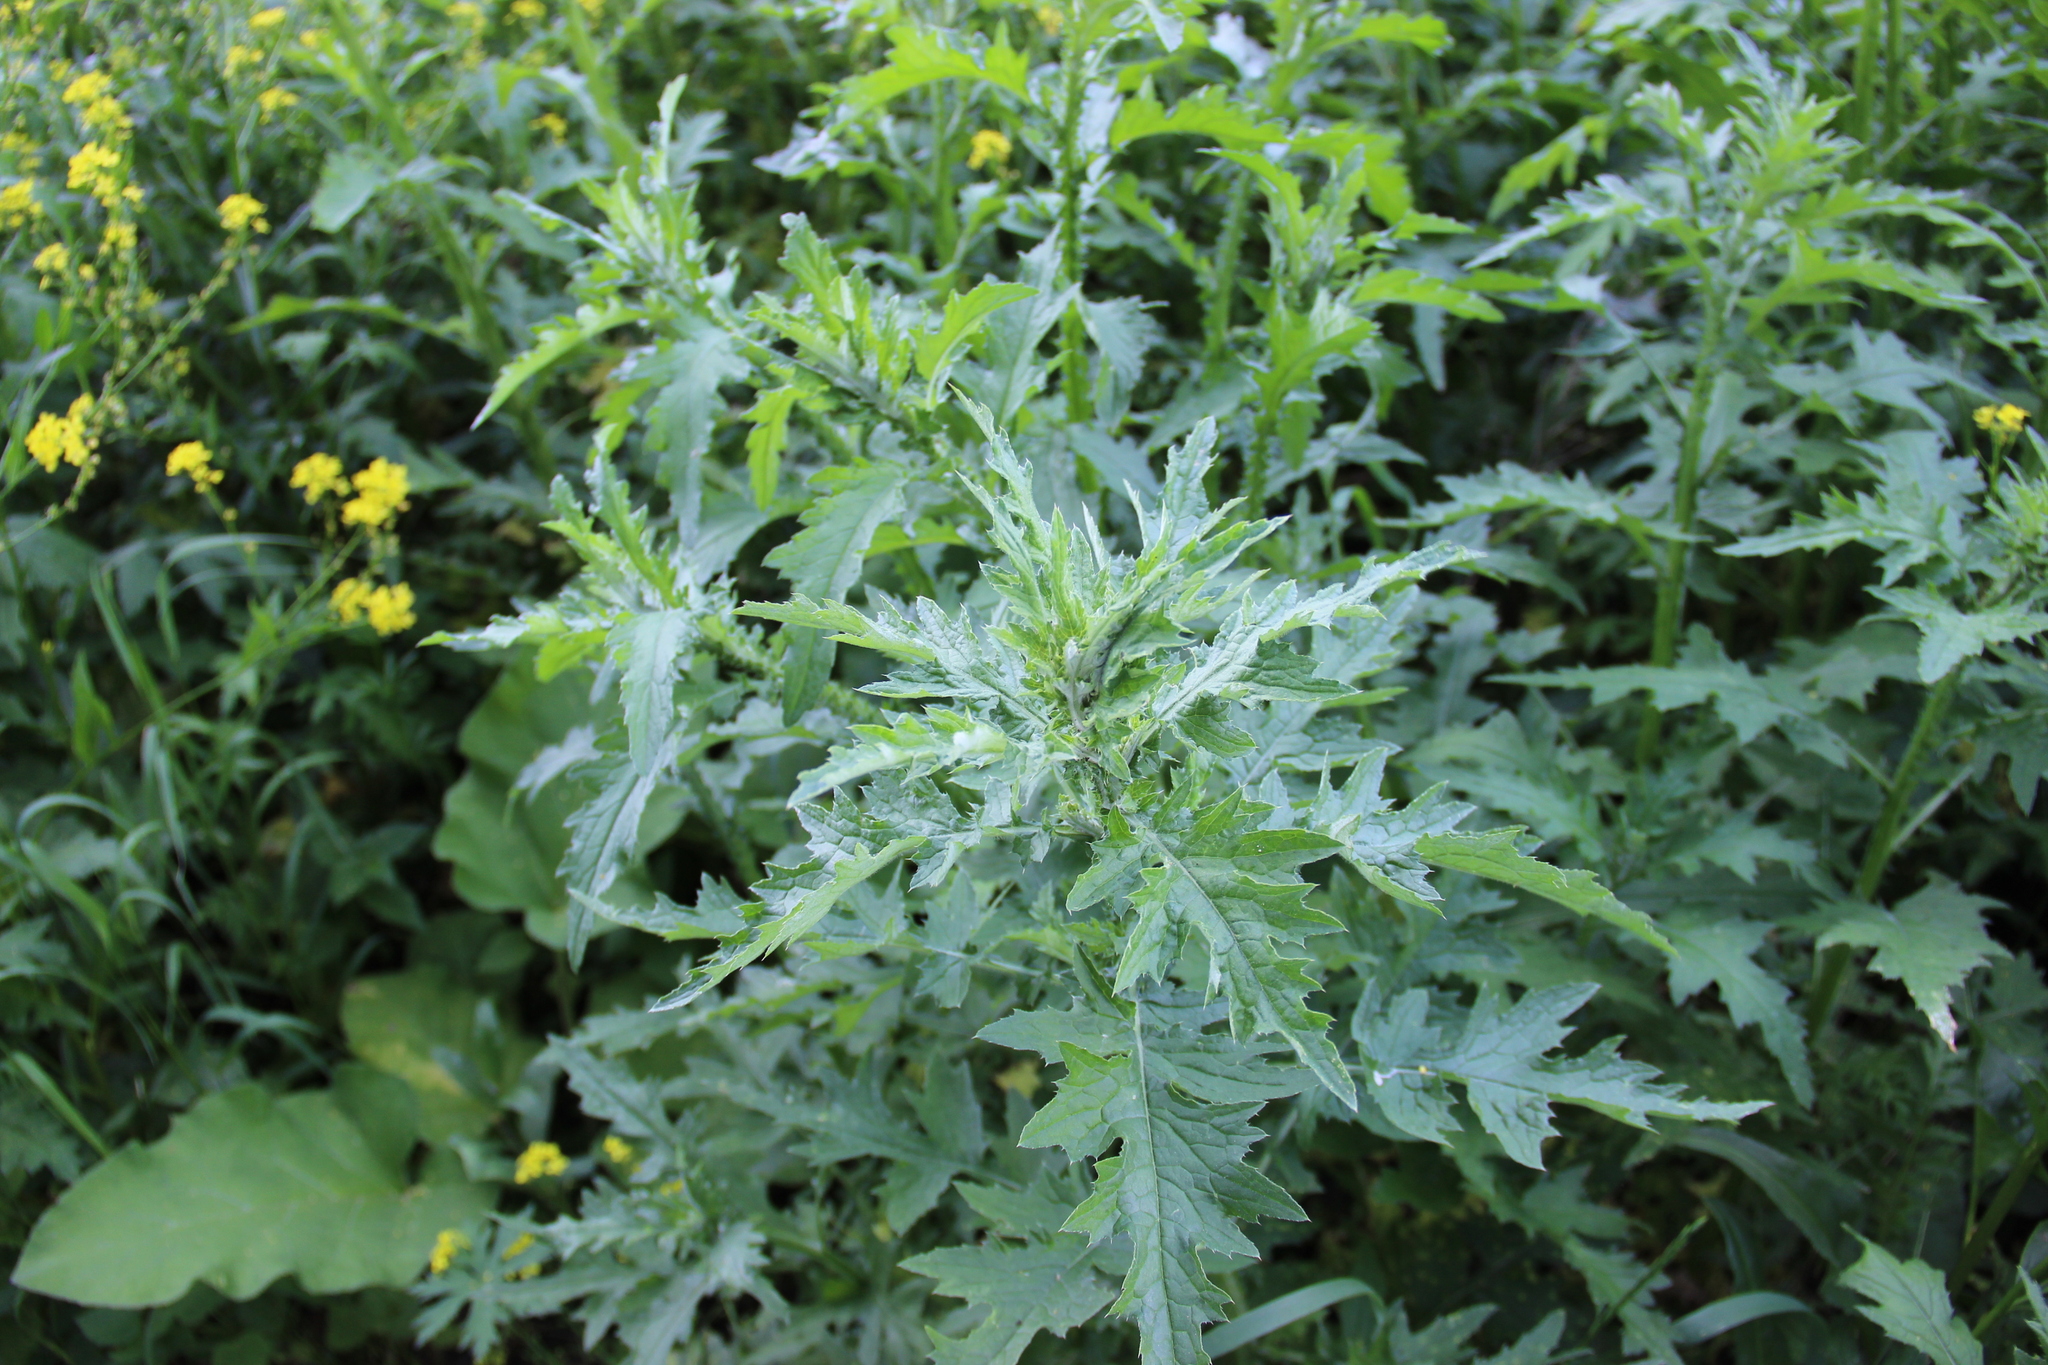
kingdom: Plantae
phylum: Tracheophyta
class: Magnoliopsida
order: Asterales
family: Asteraceae
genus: Carduus
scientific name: Carduus crispus
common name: Welted thistle
